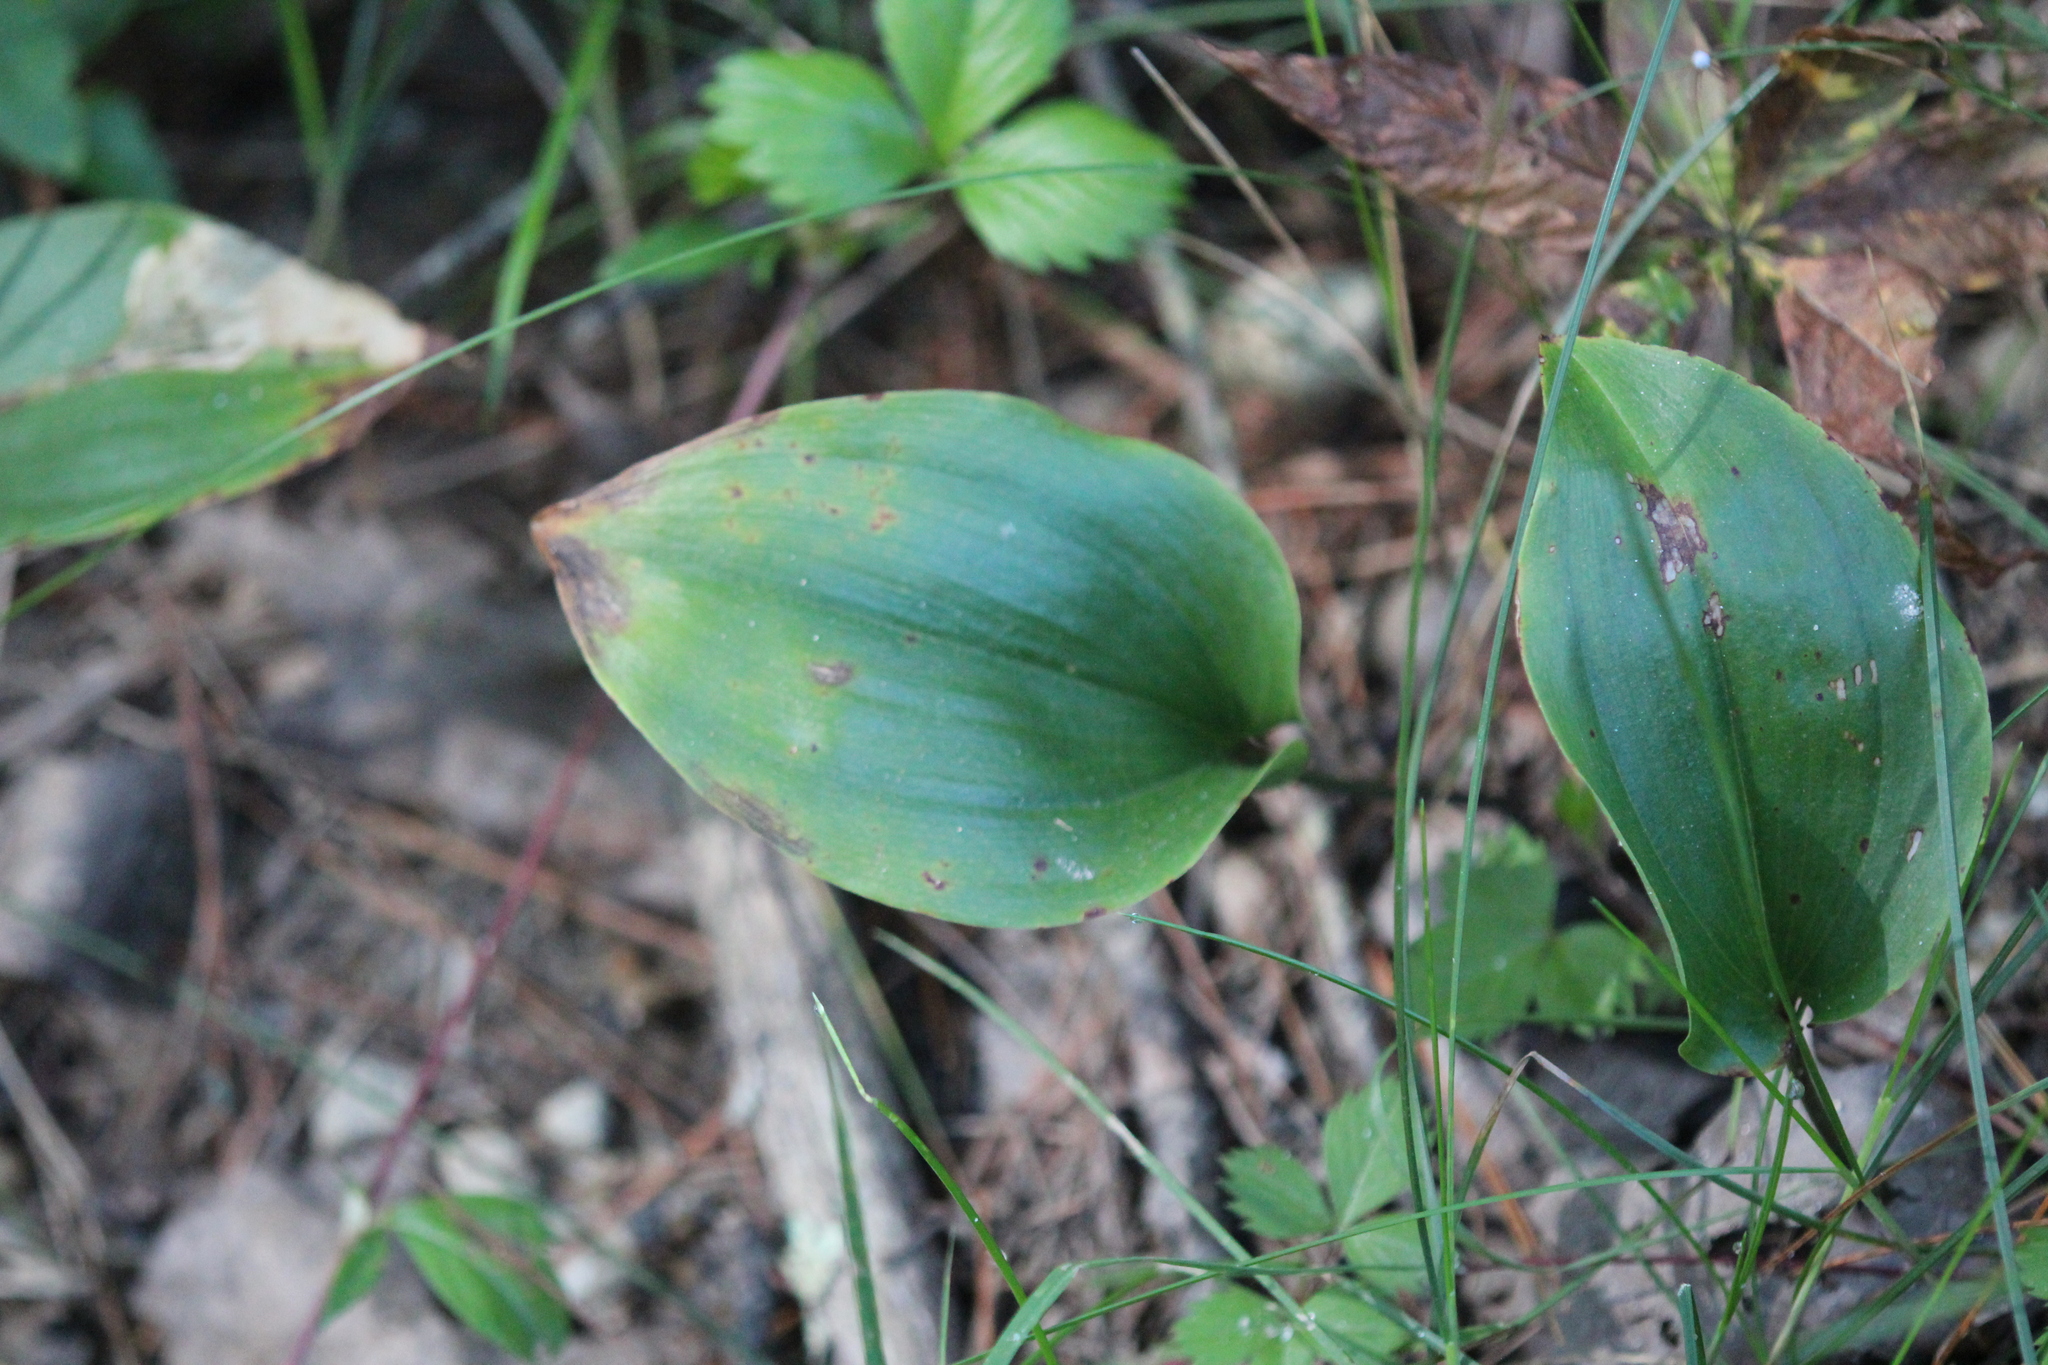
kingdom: Plantae
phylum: Tracheophyta
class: Liliopsida
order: Asparagales
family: Asparagaceae
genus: Maianthemum
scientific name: Maianthemum canadense
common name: False lily-of-the-valley
